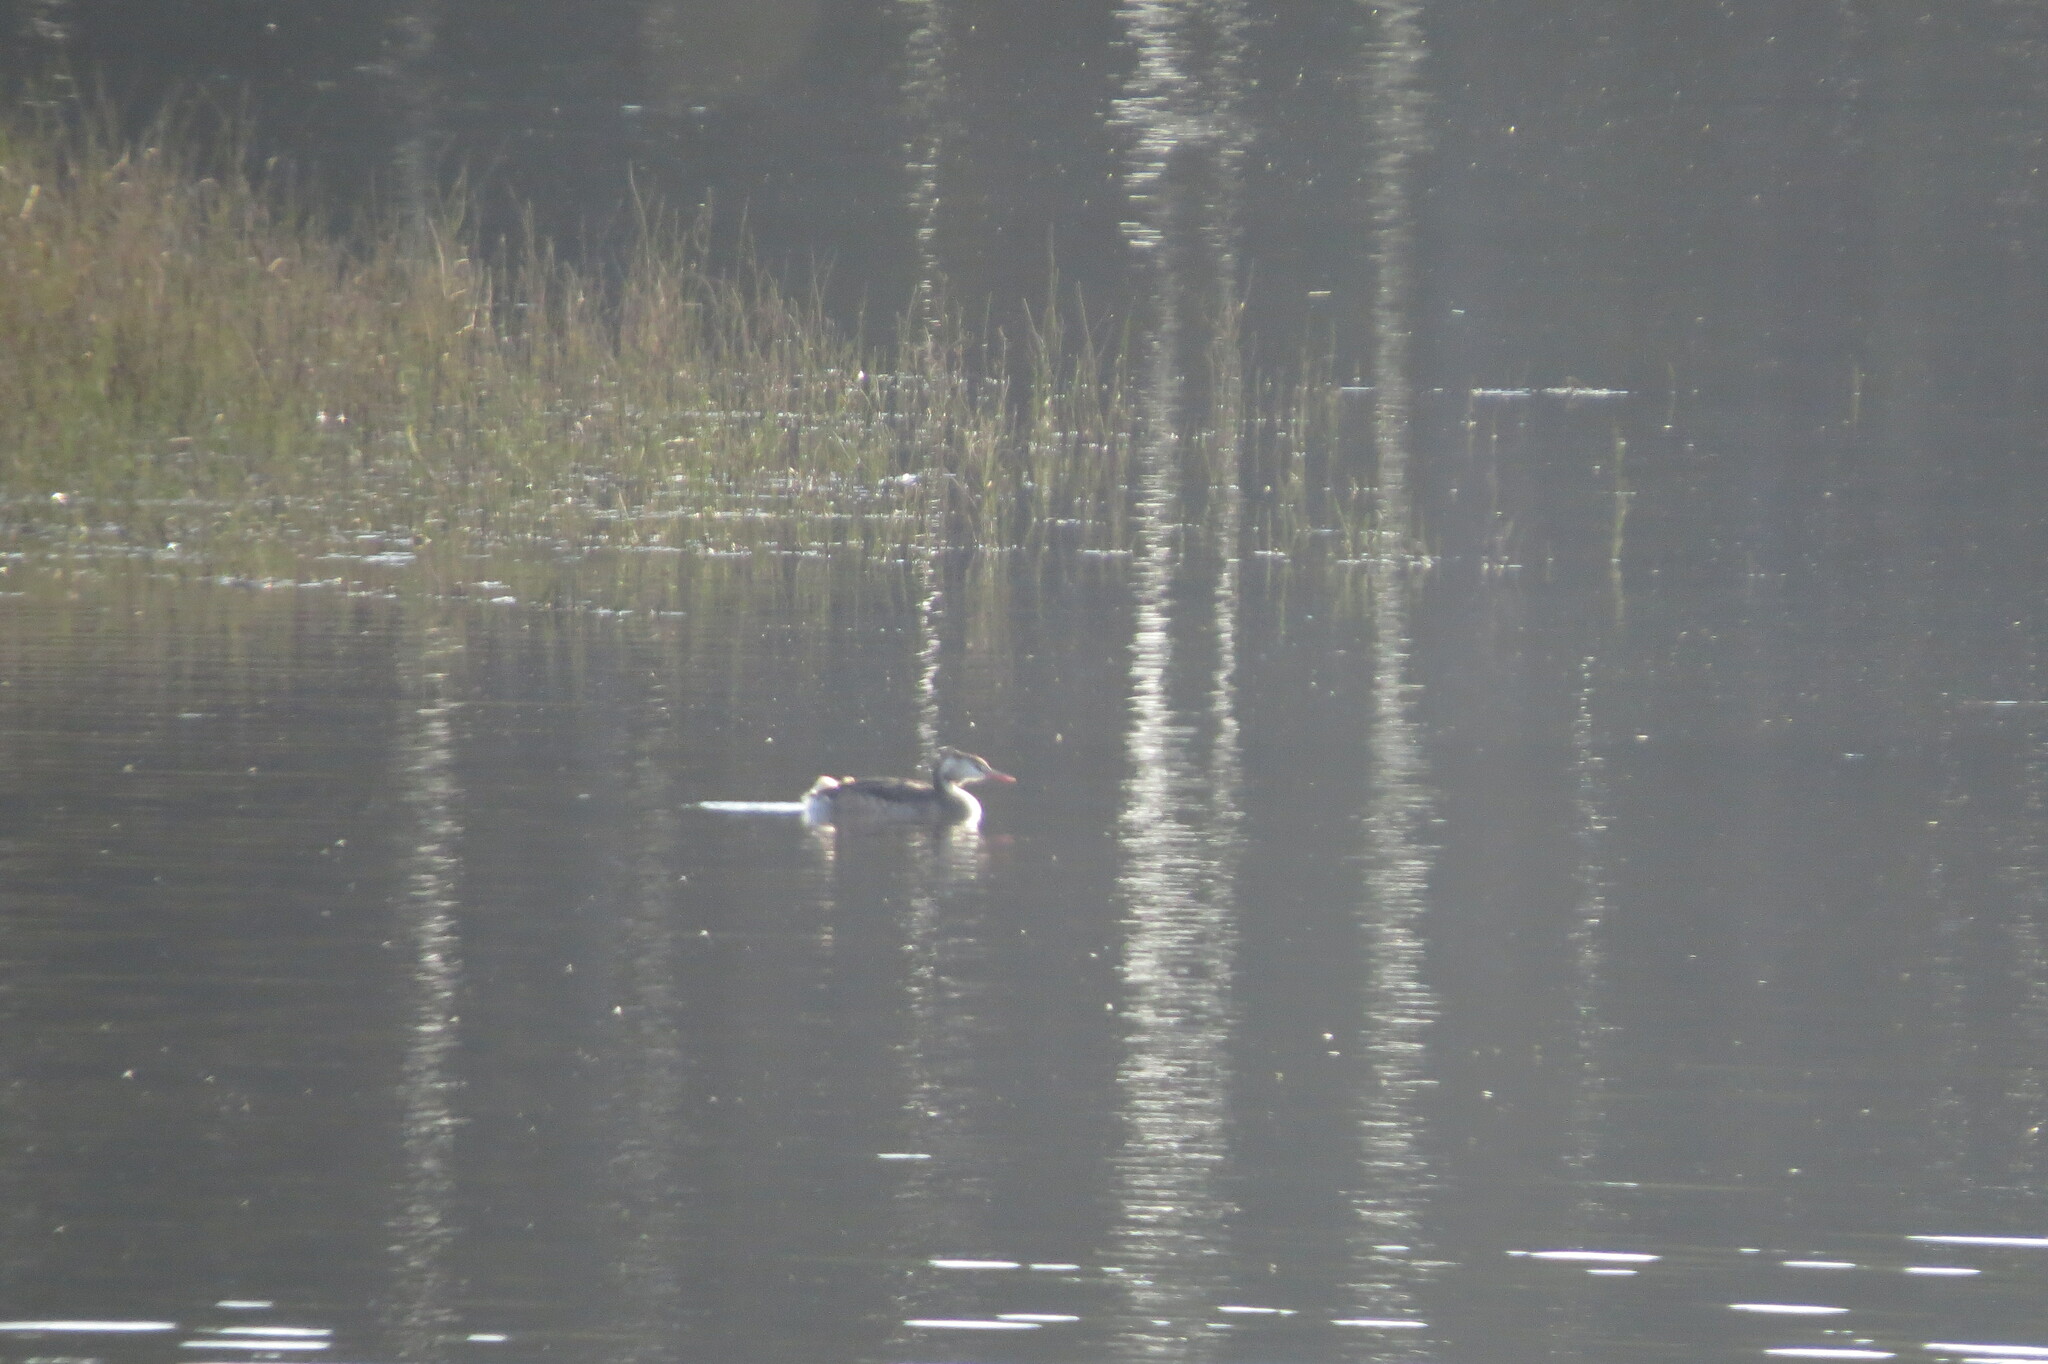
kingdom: Animalia
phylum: Chordata
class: Aves
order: Podicipediformes
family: Podicipedidae
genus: Podiceps
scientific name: Podiceps cristatus
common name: Great crested grebe
